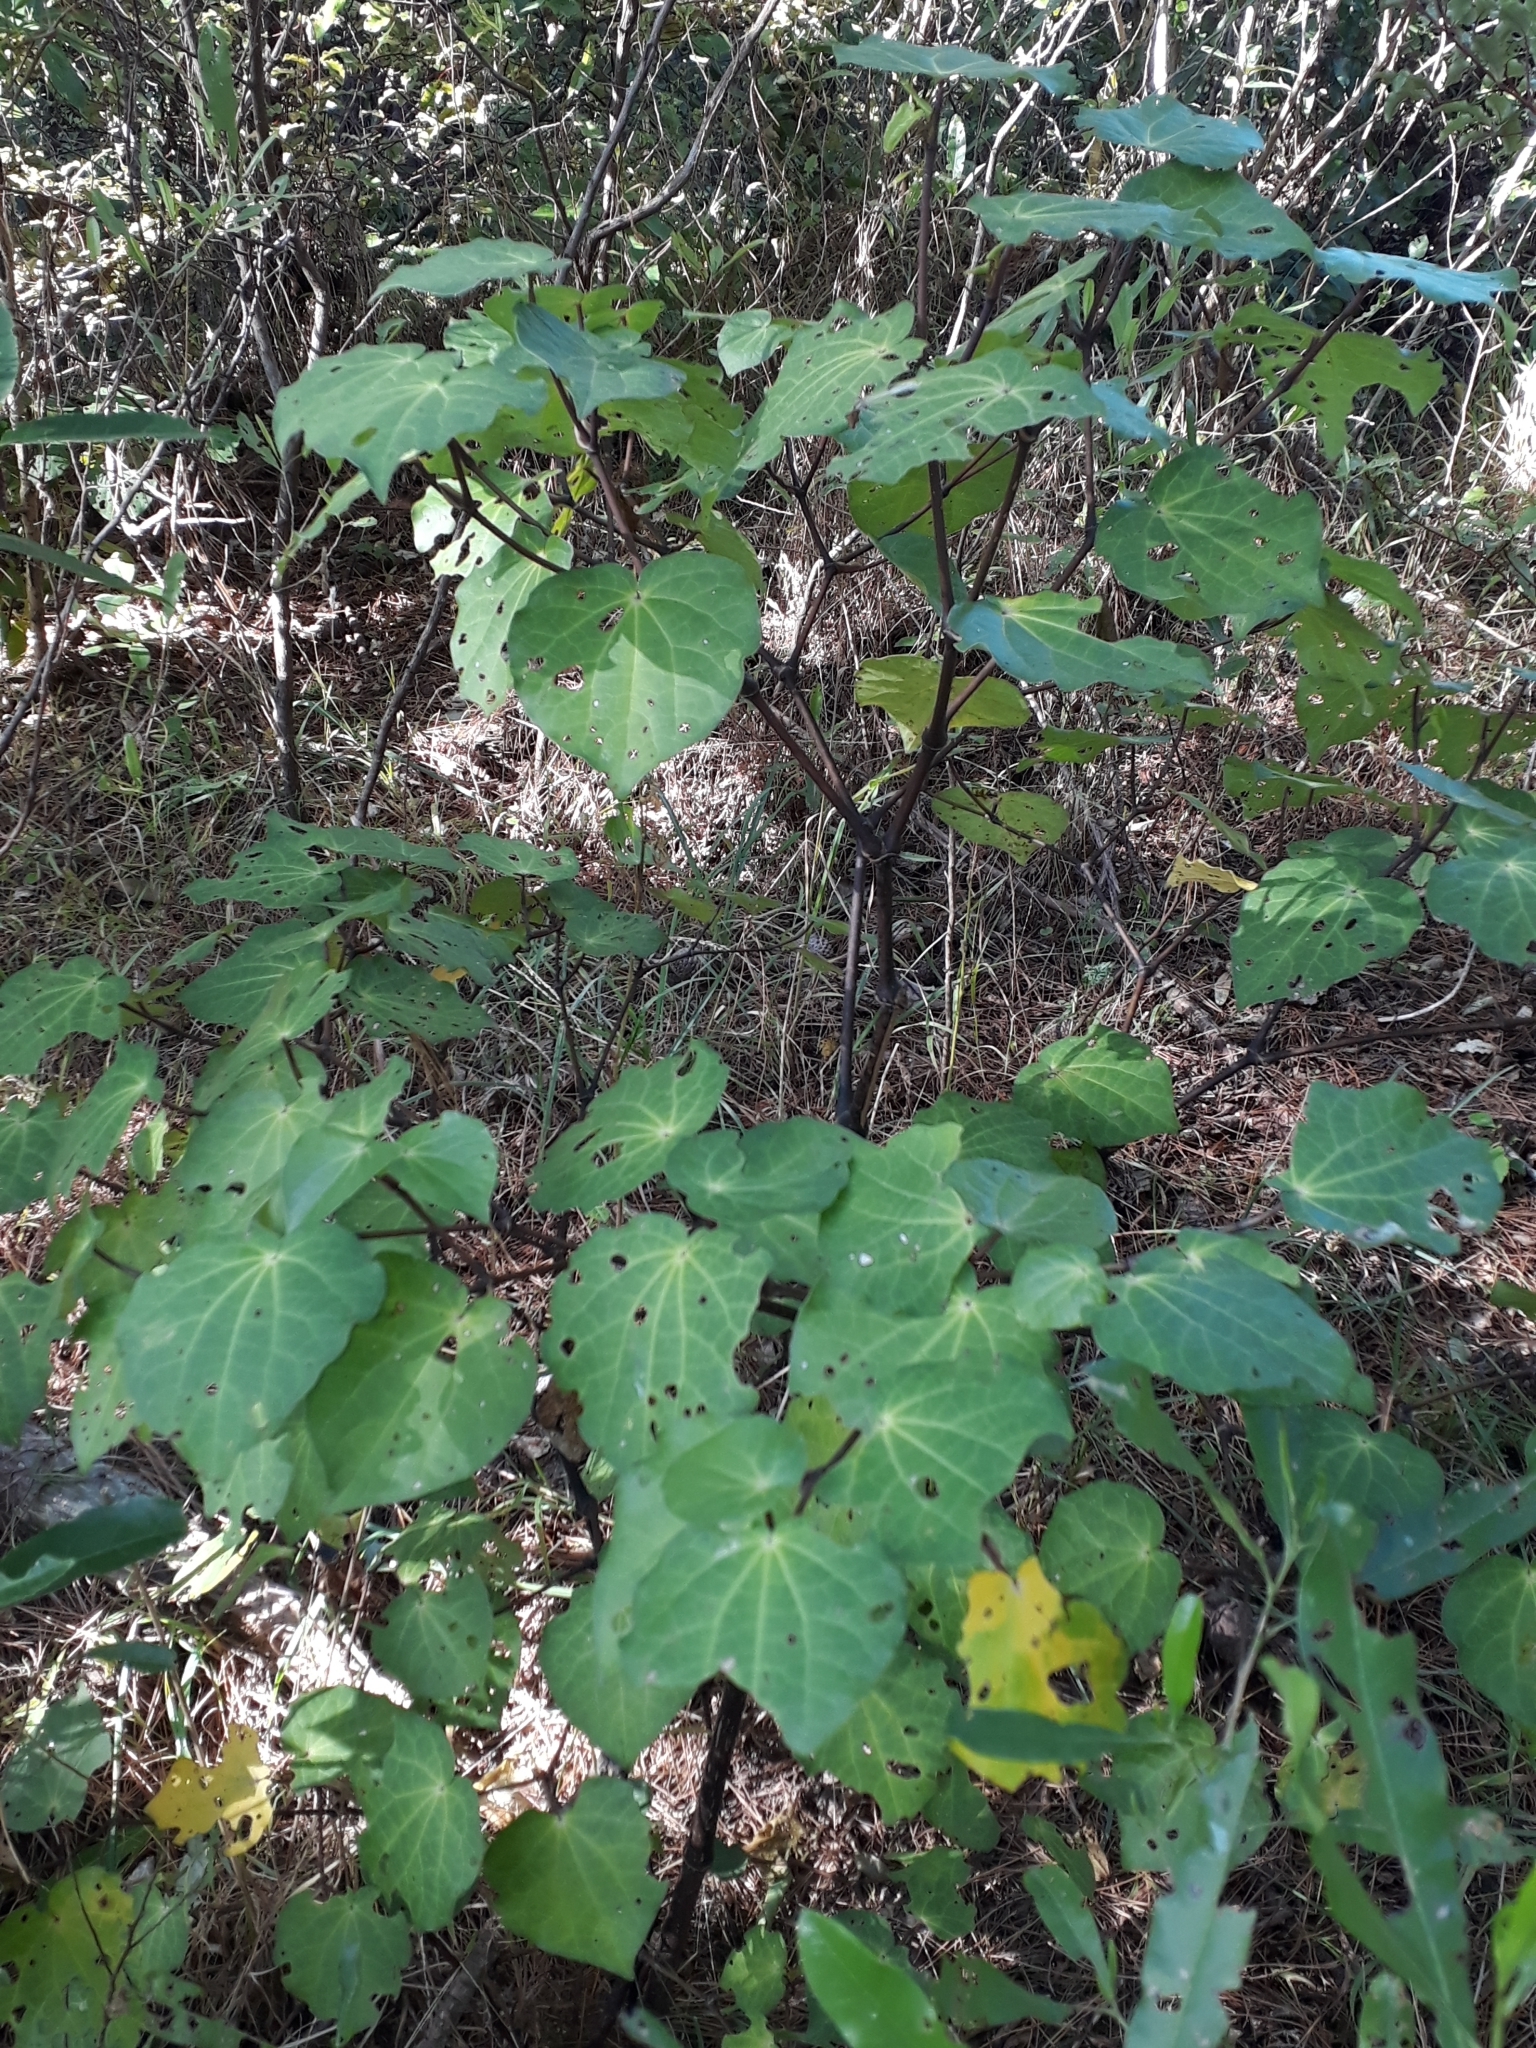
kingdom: Plantae
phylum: Tracheophyta
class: Magnoliopsida
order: Piperales
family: Piperaceae
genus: Macropiper
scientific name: Macropiper excelsum
